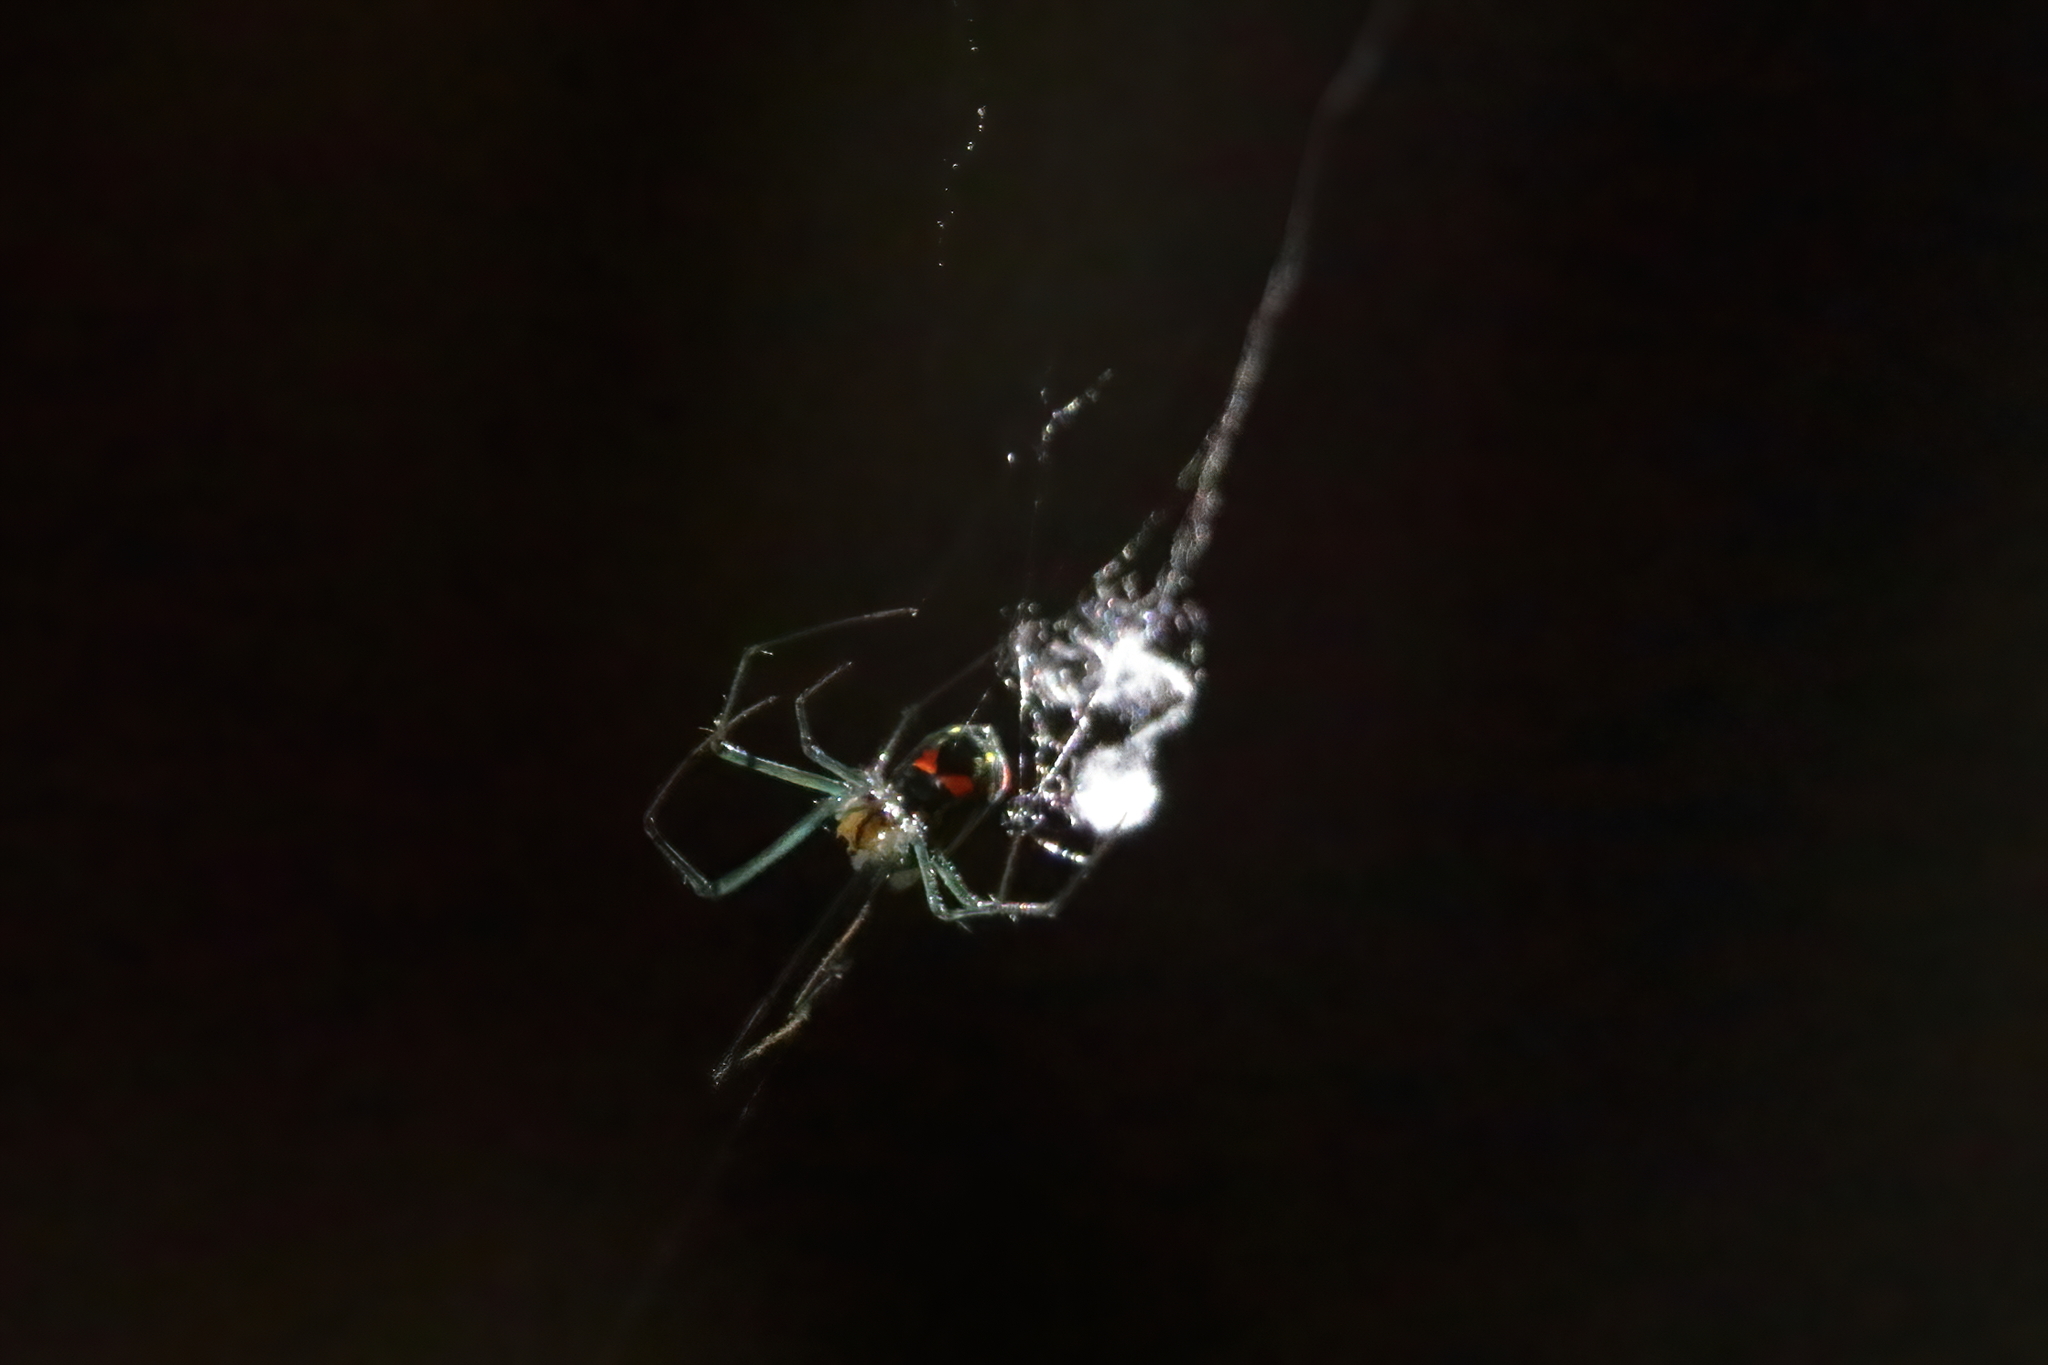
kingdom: Animalia
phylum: Arthropoda
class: Arachnida
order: Araneae
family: Tetragnathidae
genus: Leucauge
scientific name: Leucauge argyrobapta
